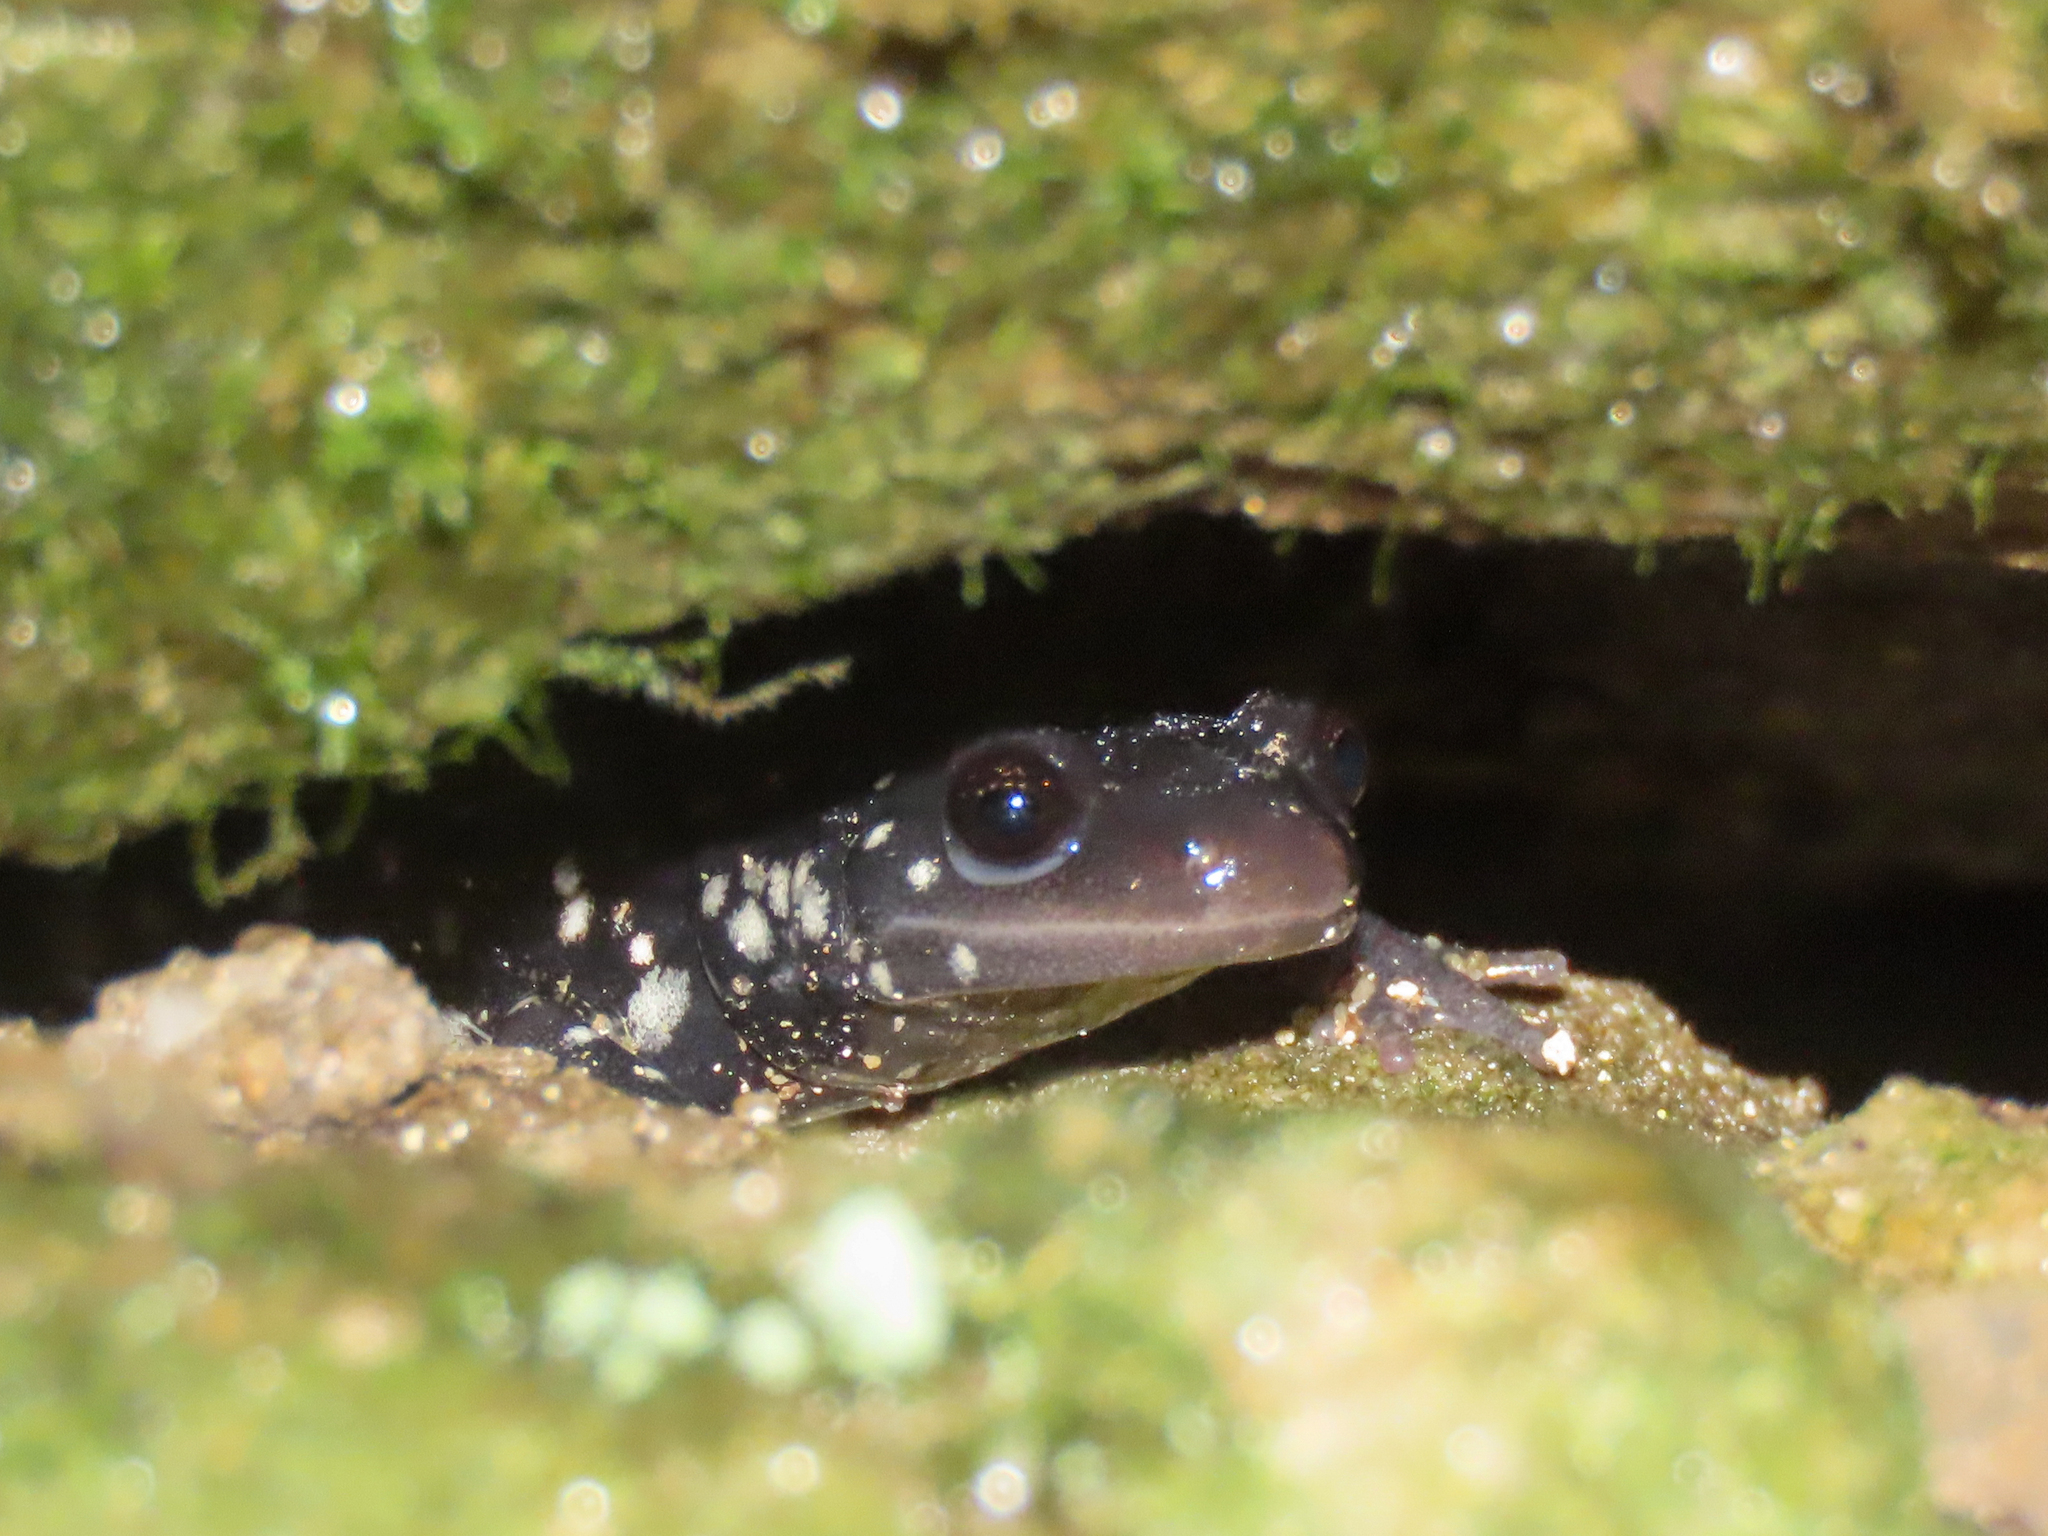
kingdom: Animalia
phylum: Chordata
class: Amphibia
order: Caudata
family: Plethodontidae
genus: Plethodon
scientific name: Plethodon glutinosus
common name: Northern slimy salamander
